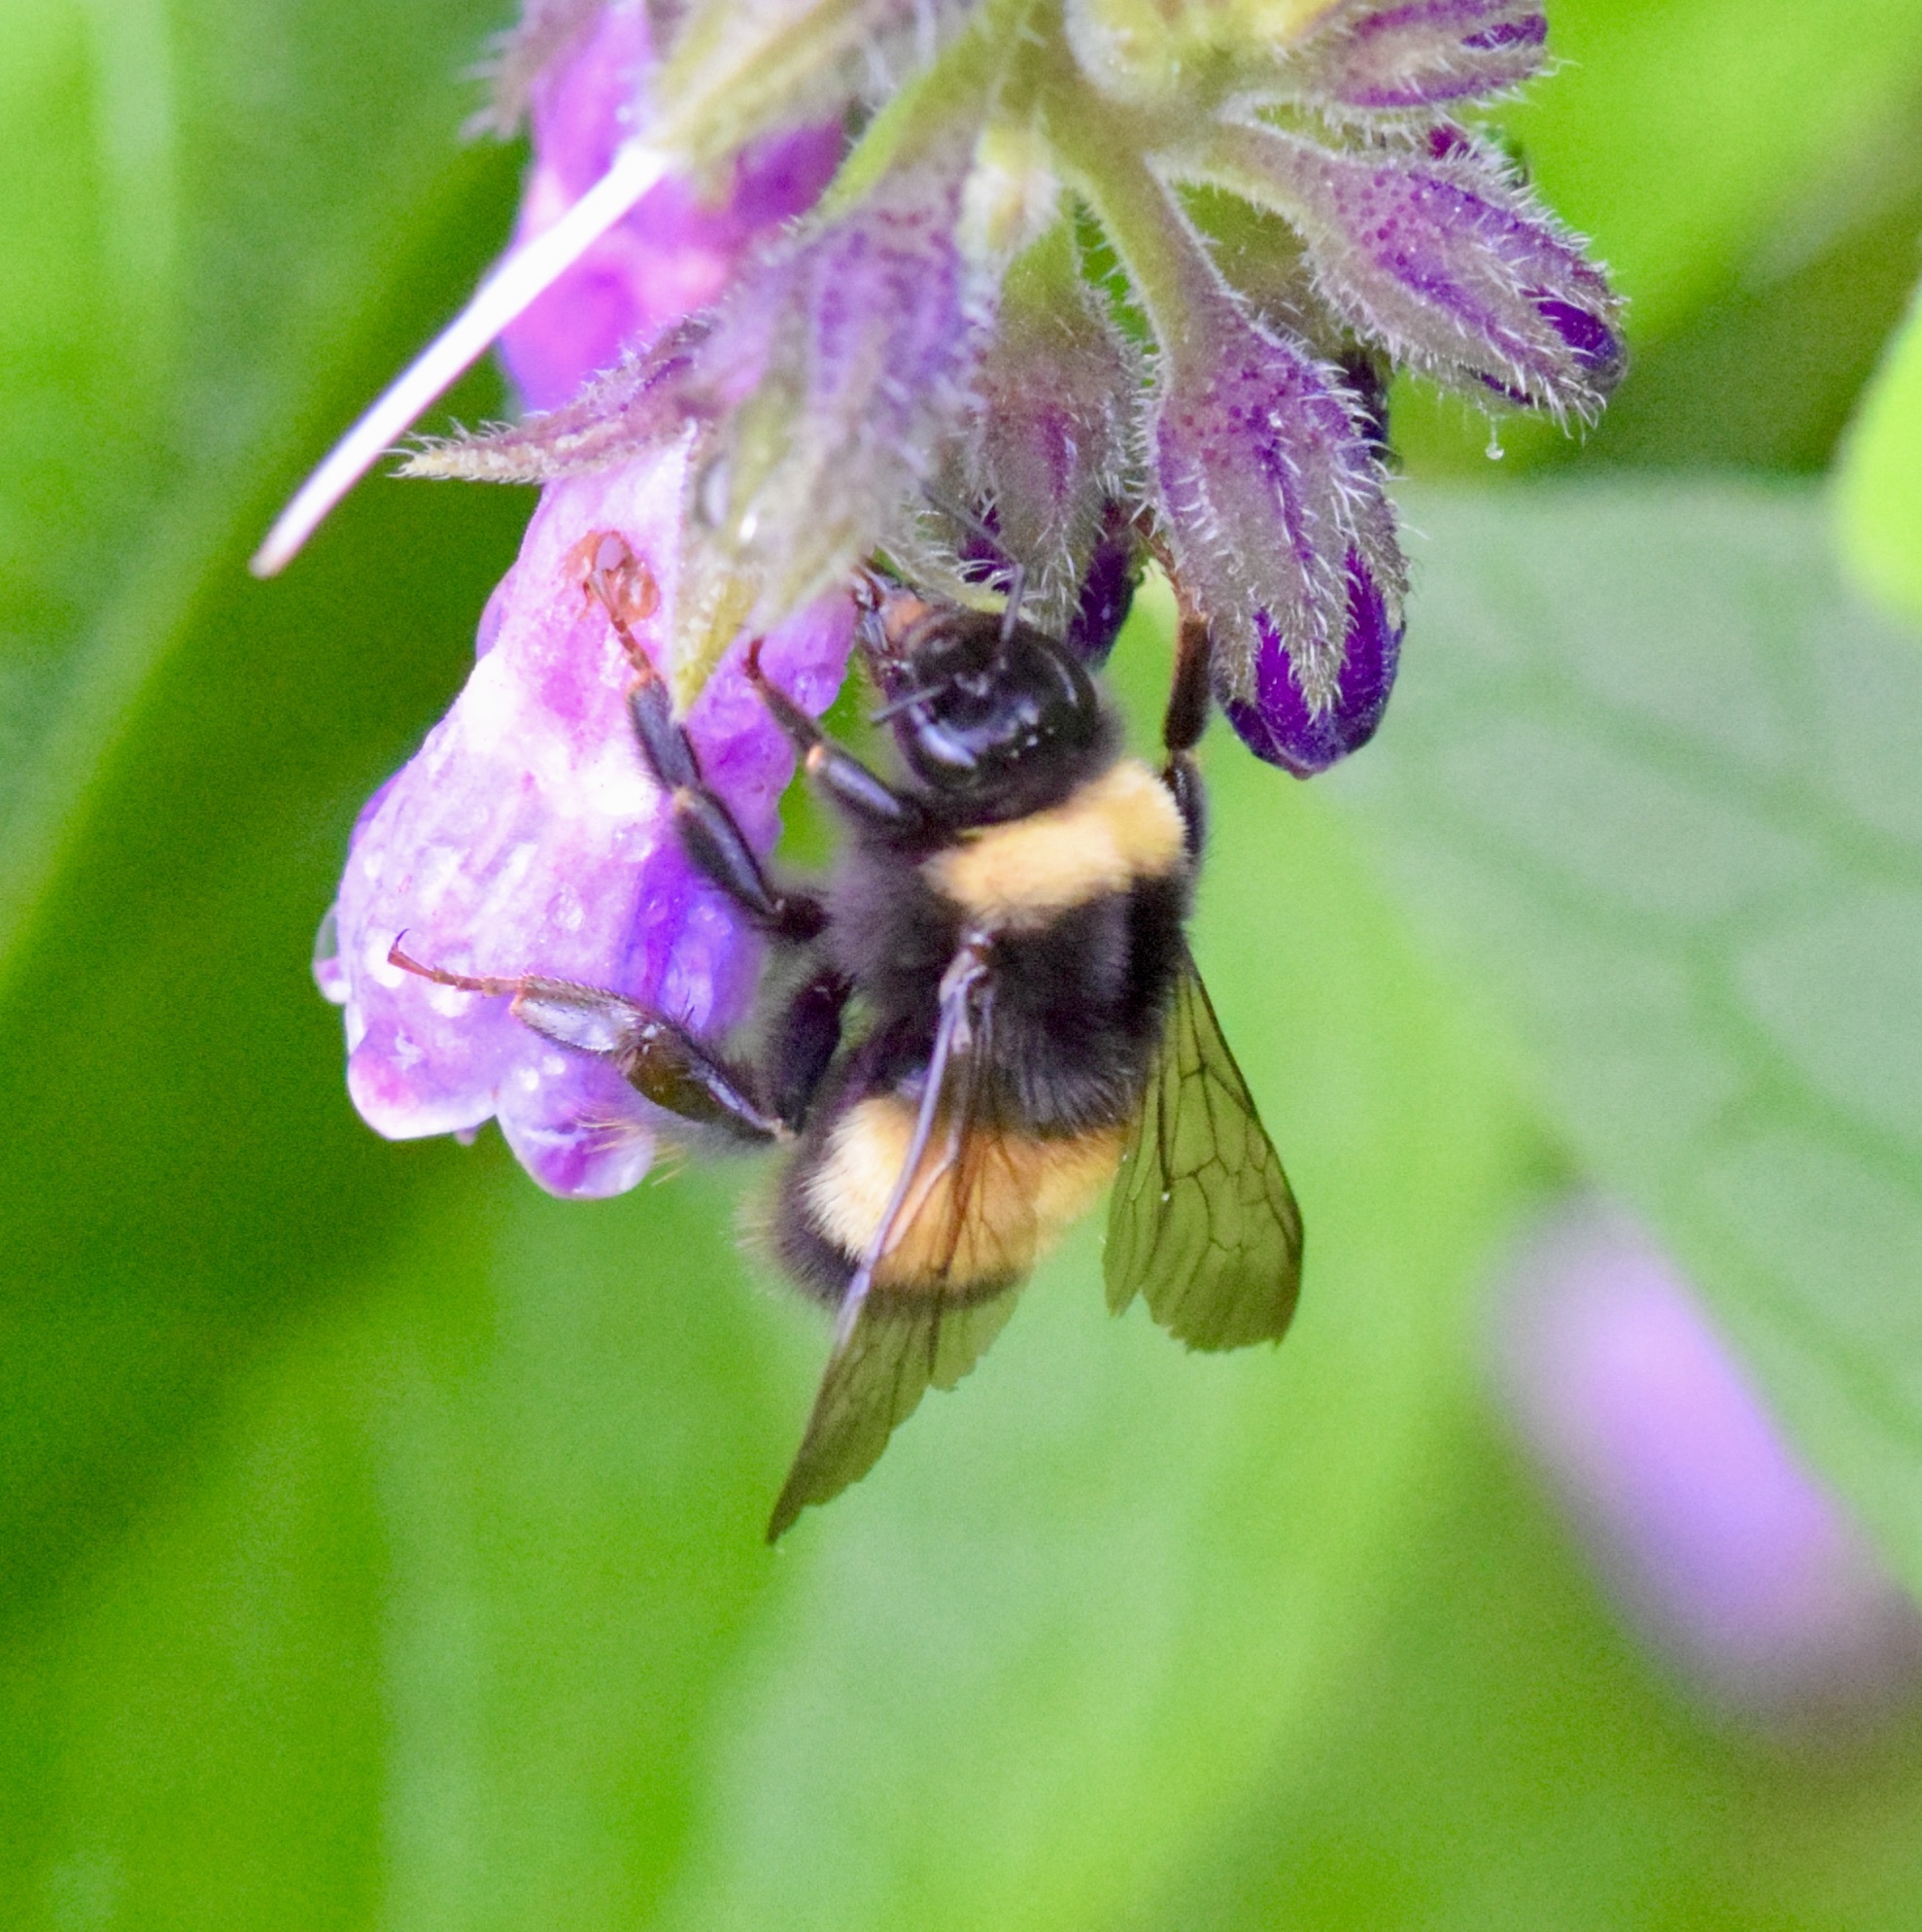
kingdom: Animalia
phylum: Arthropoda
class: Insecta
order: Hymenoptera
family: Apidae
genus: Bombus
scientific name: Bombus terricola
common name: Yellow-banded bumble bee
